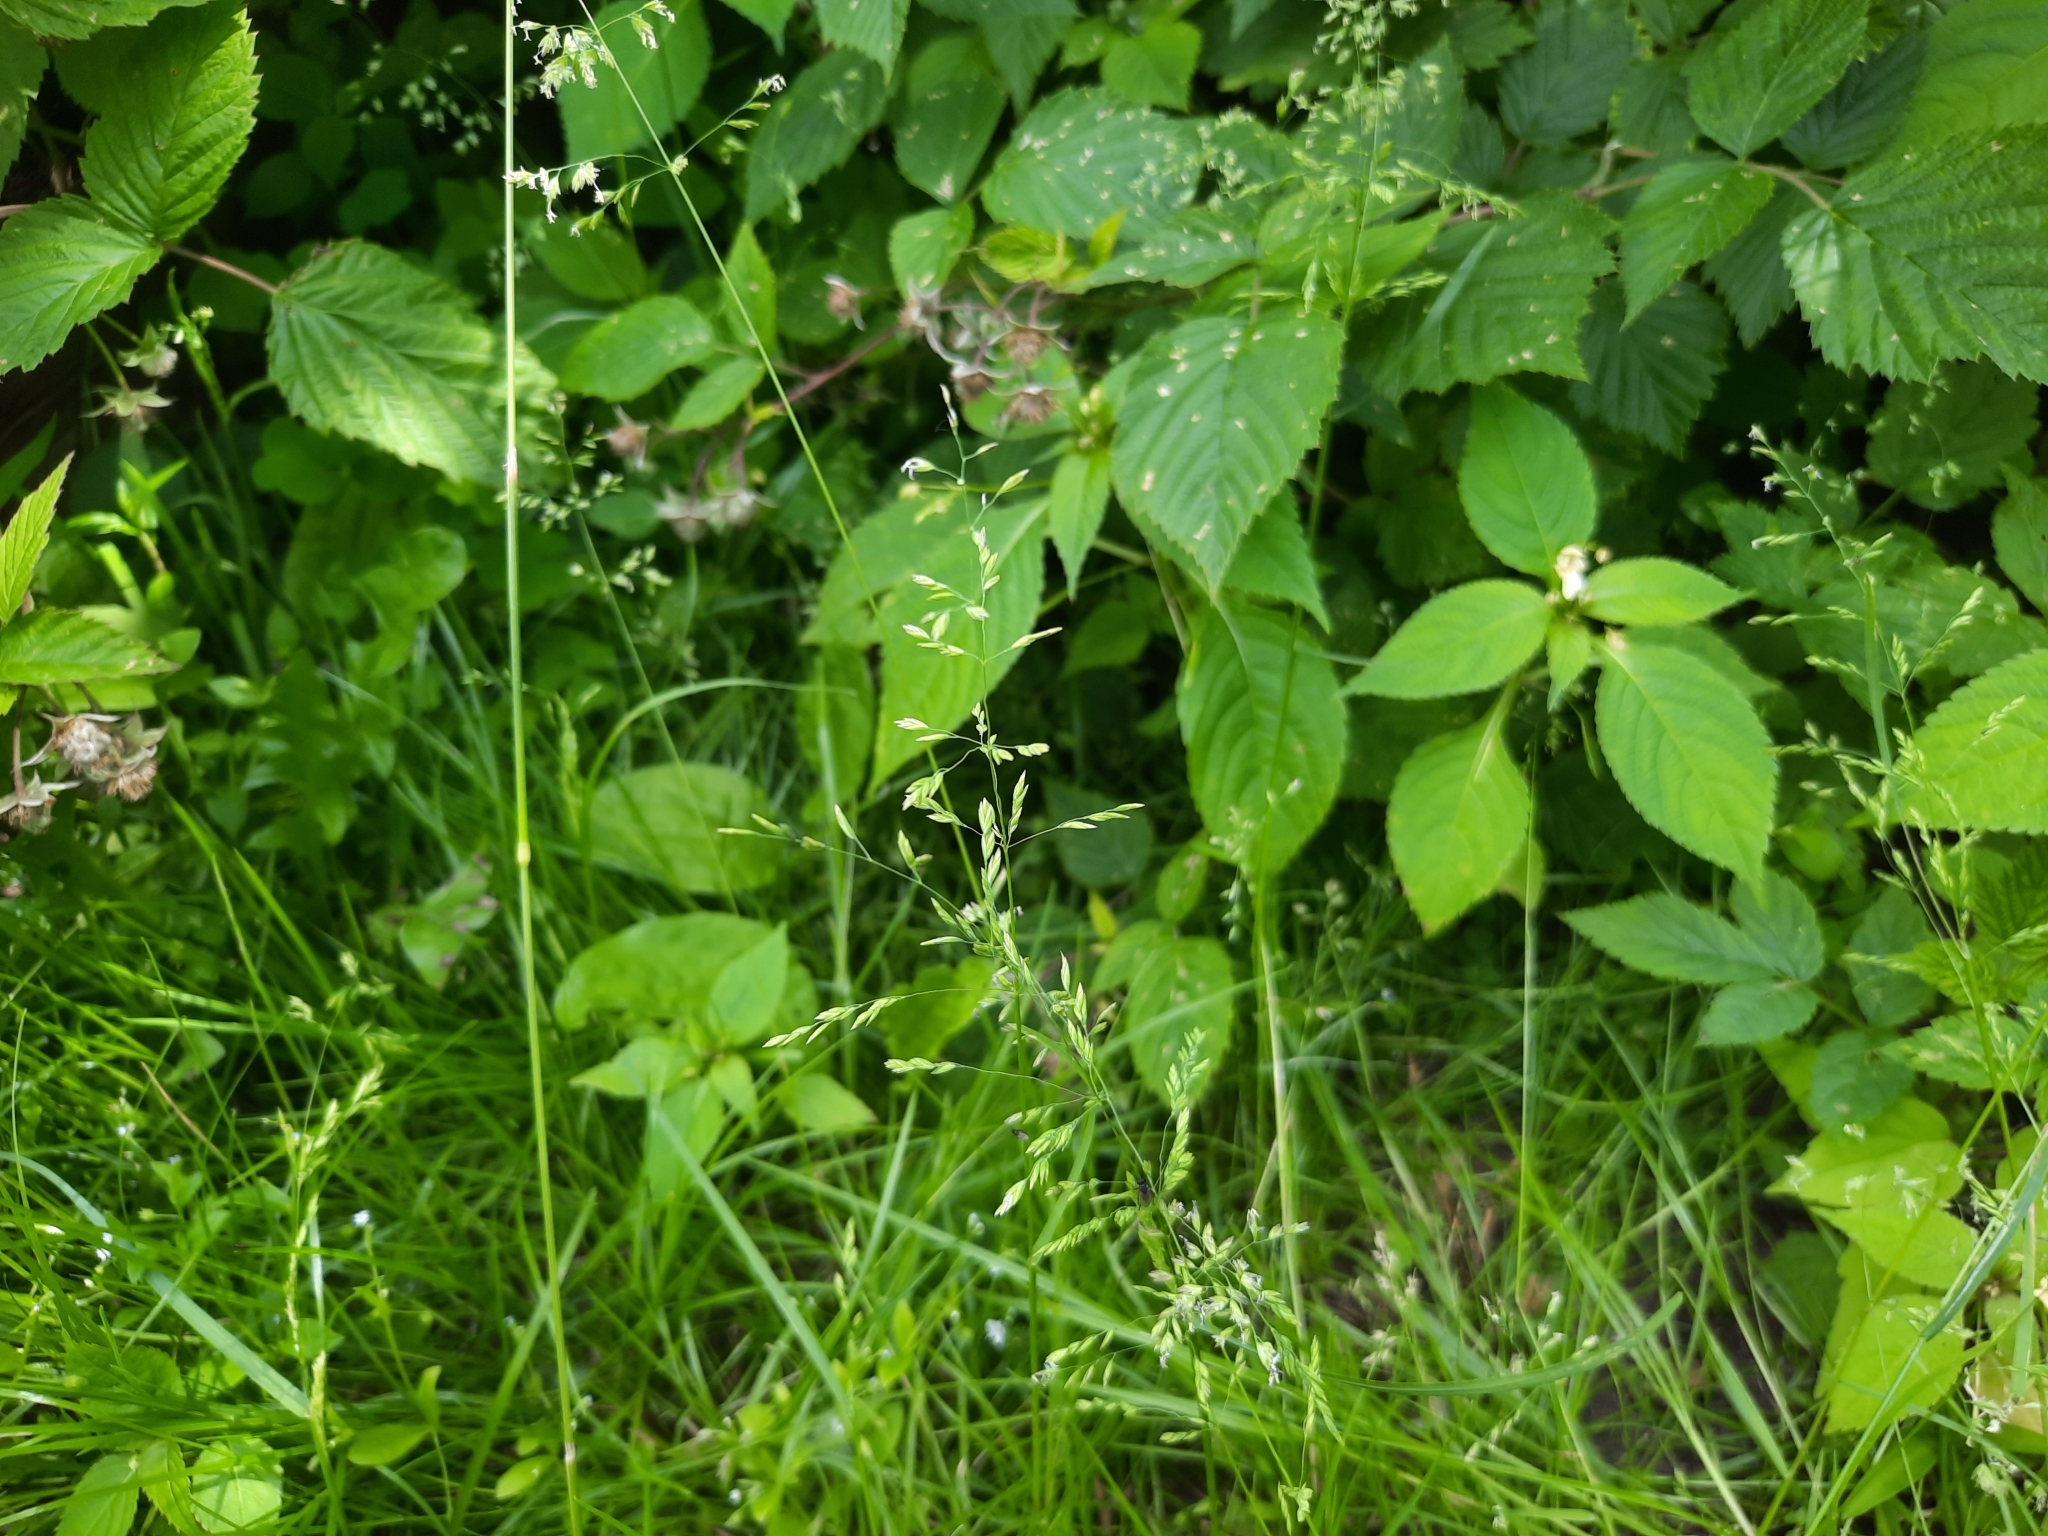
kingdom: Plantae
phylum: Tracheophyta
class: Liliopsida
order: Poales
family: Poaceae
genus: Poa
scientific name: Poa trivialis
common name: Rough bluegrass
